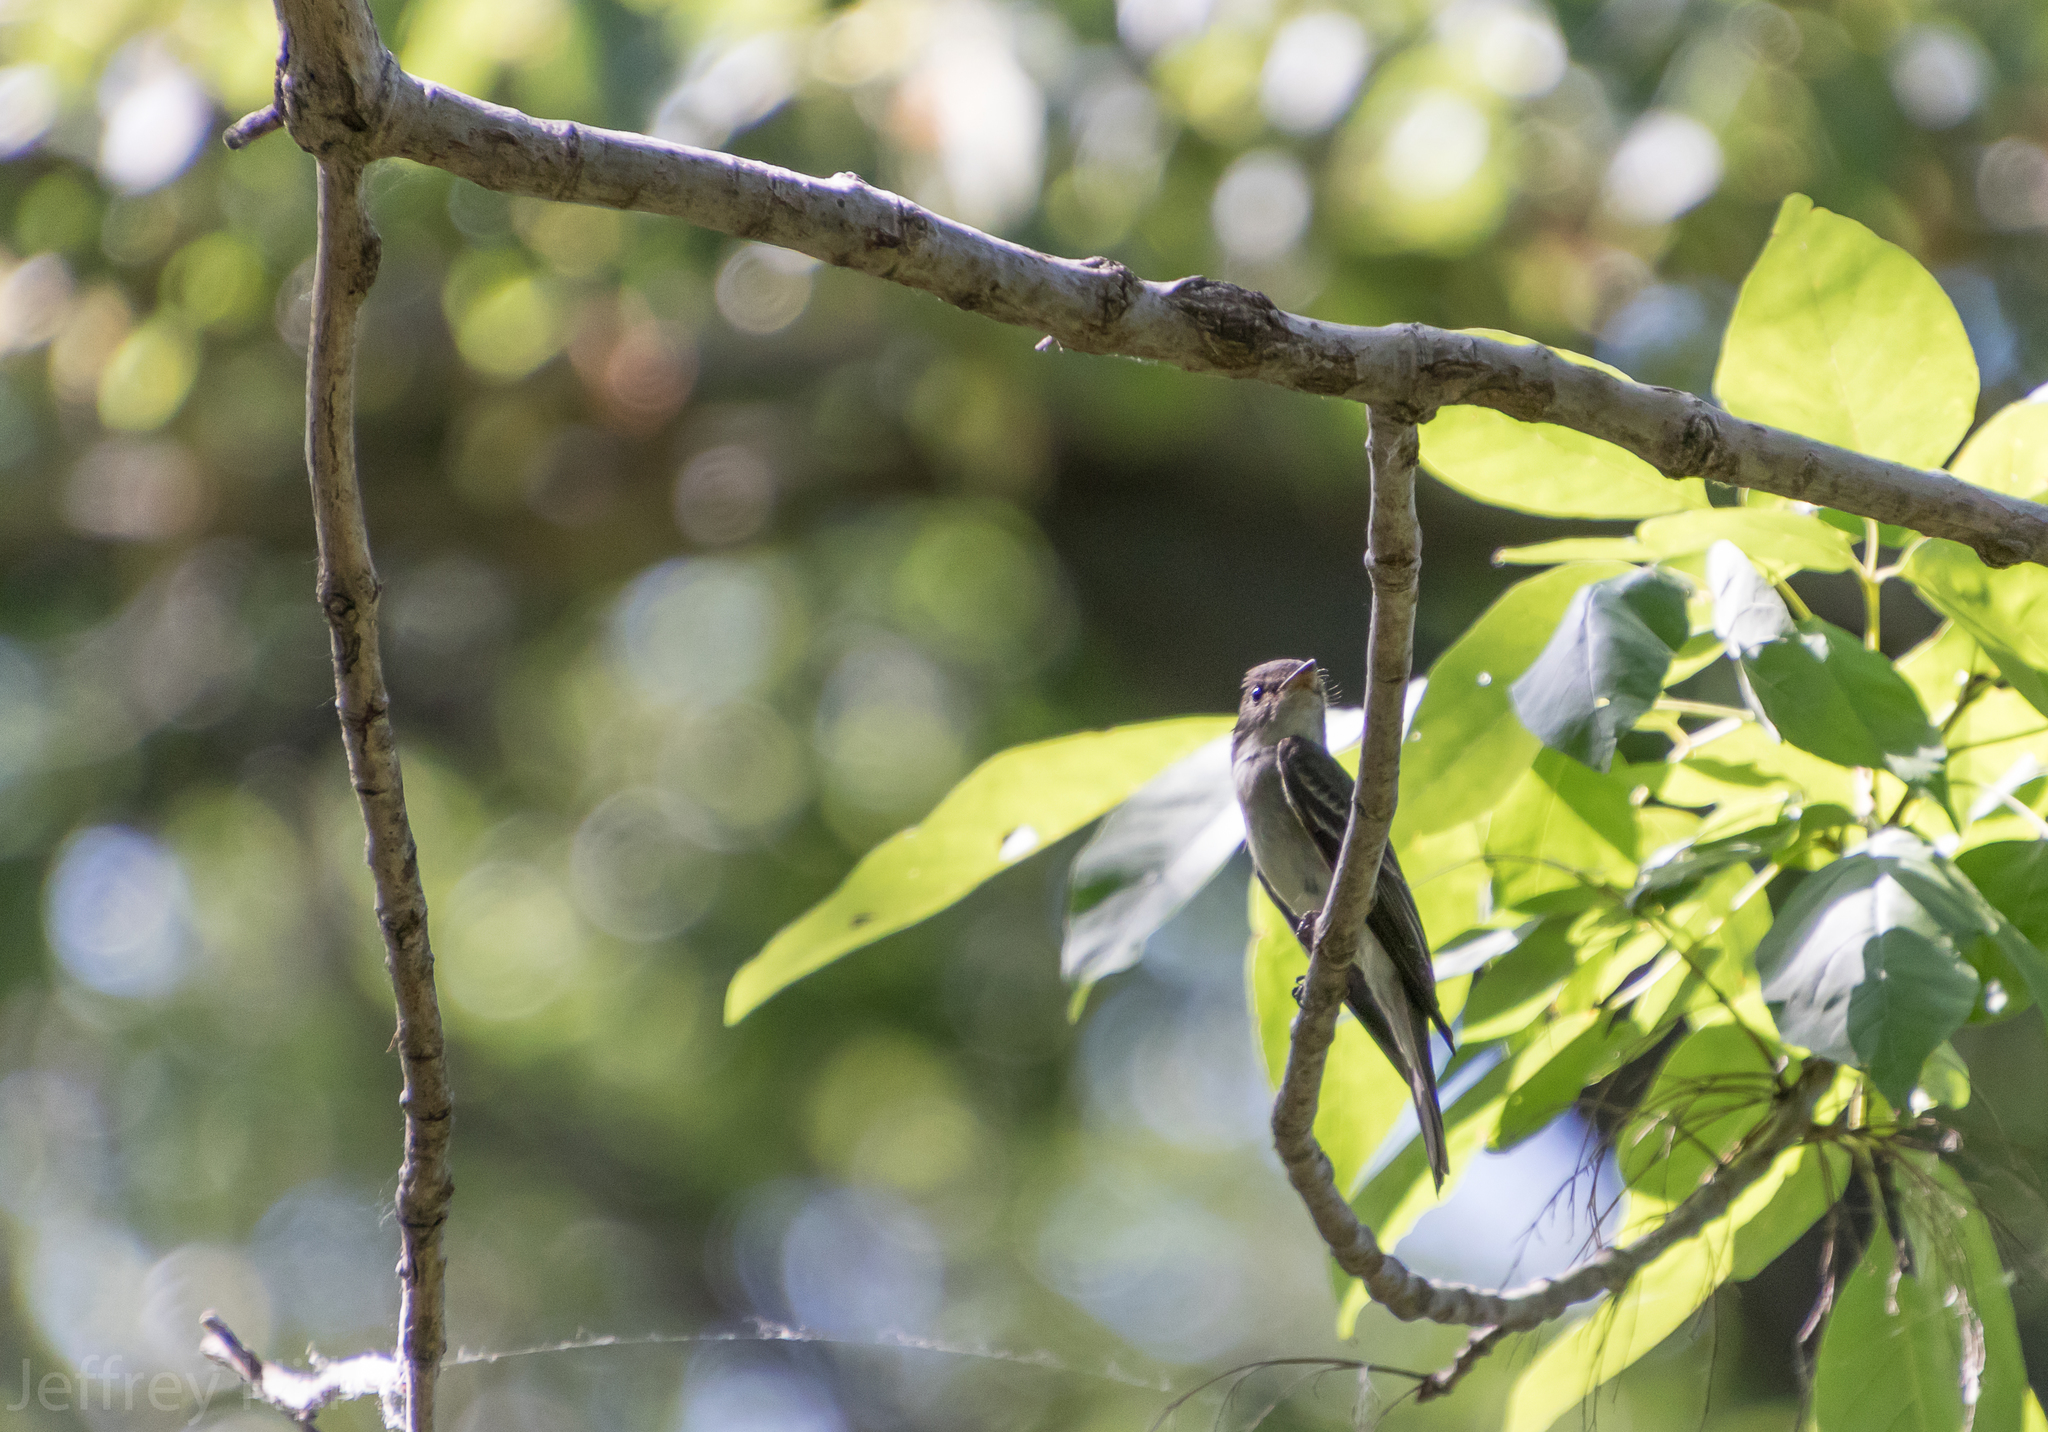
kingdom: Animalia
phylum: Chordata
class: Aves
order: Passeriformes
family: Tyrannidae
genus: Contopus
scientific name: Contopus virens
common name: Eastern wood-pewee
